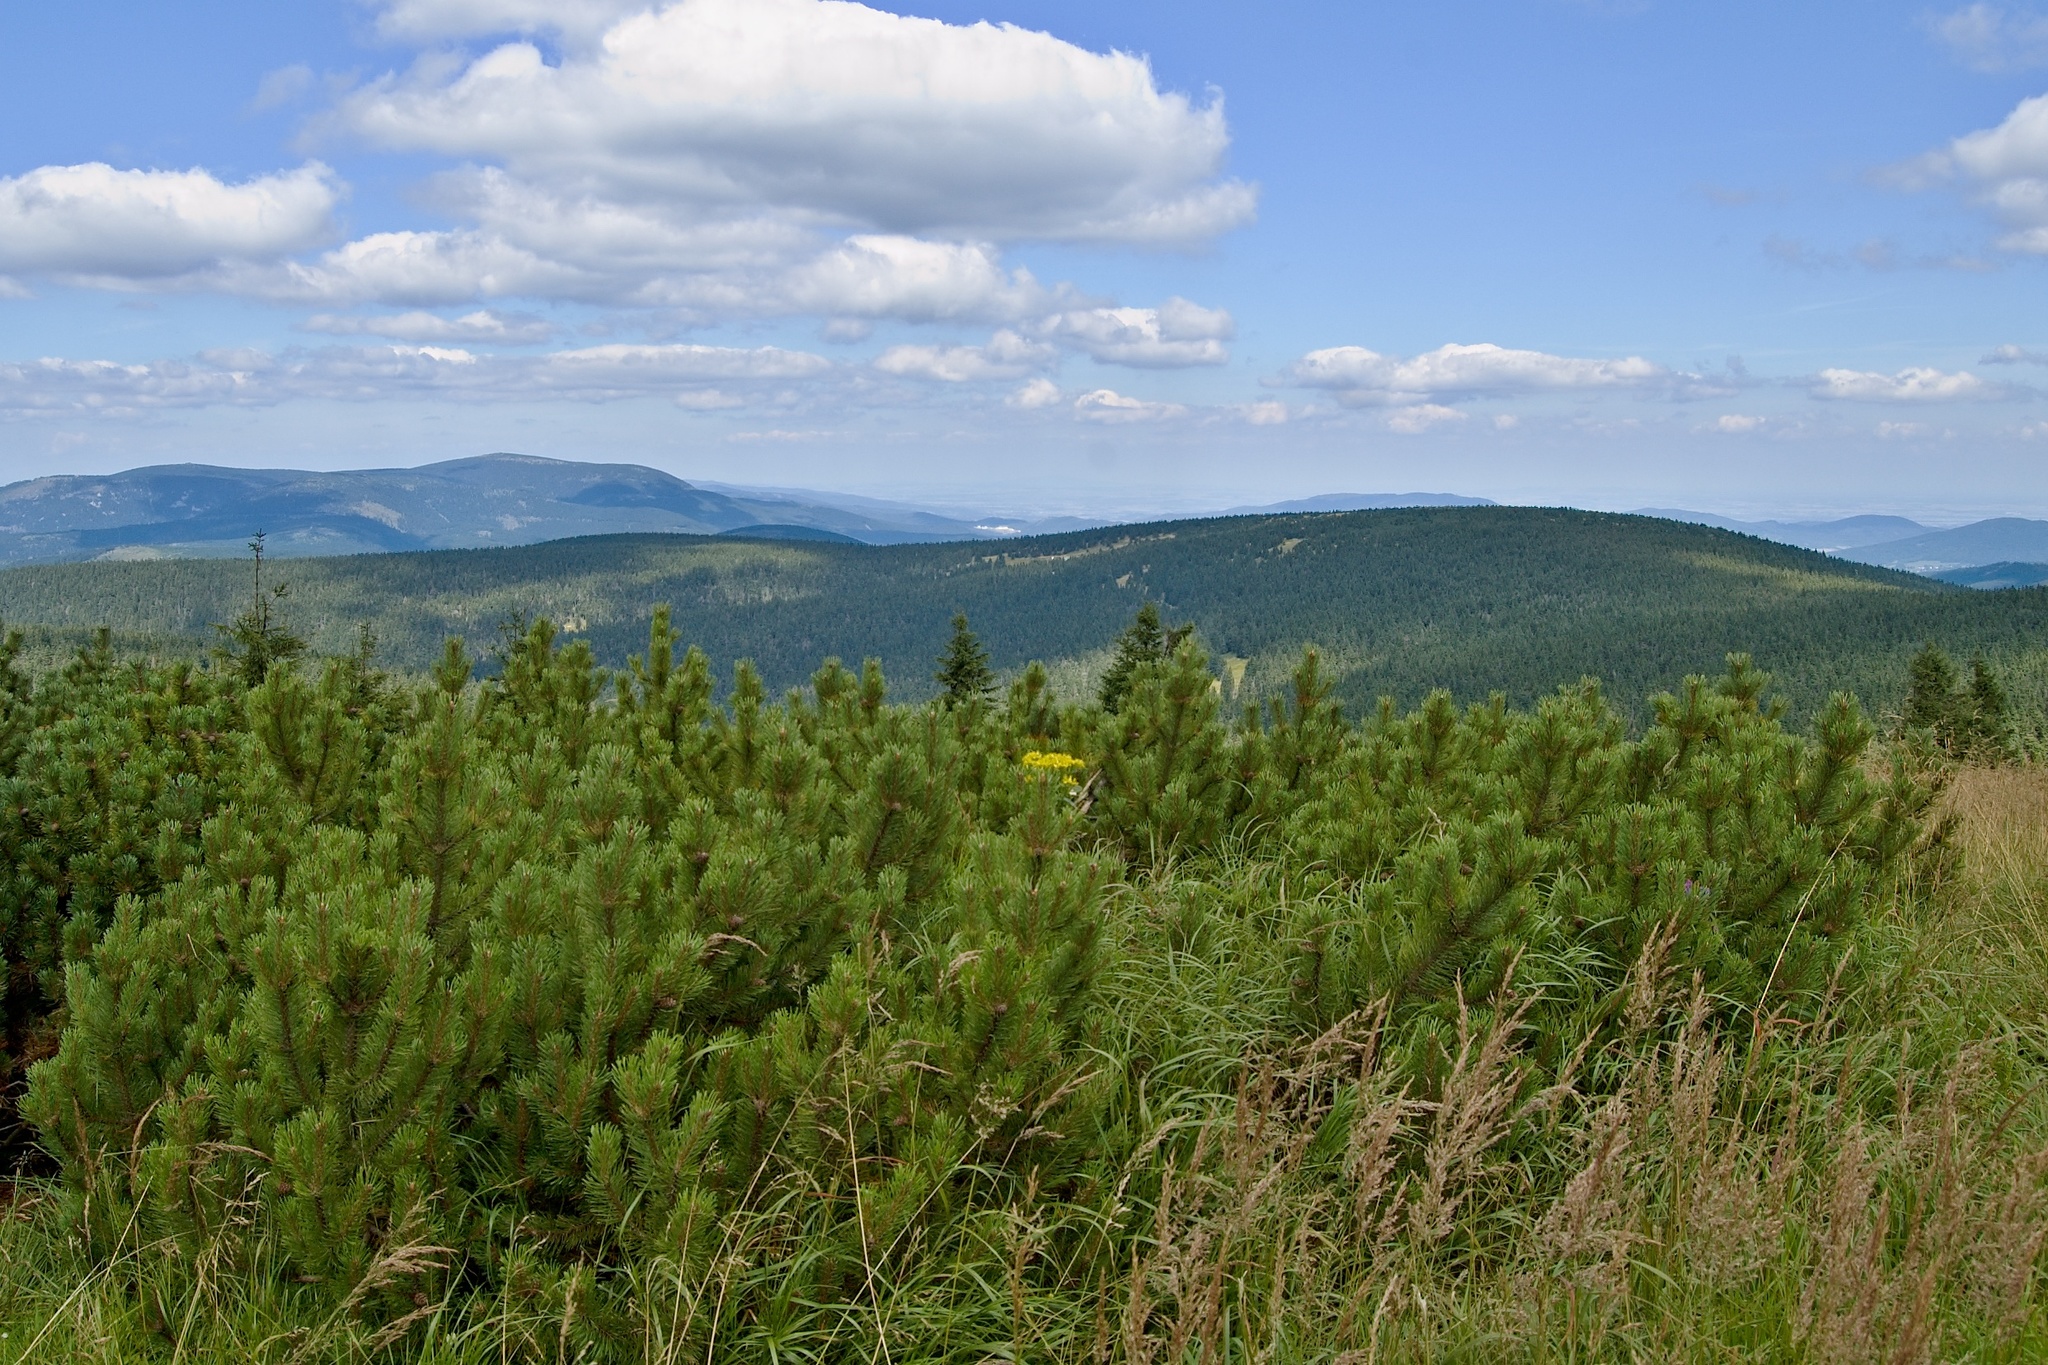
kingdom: Plantae
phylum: Tracheophyta
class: Pinopsida
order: Pinales
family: Pinaceae
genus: Pinus
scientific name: Pinus mugo
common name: Mugo pine
